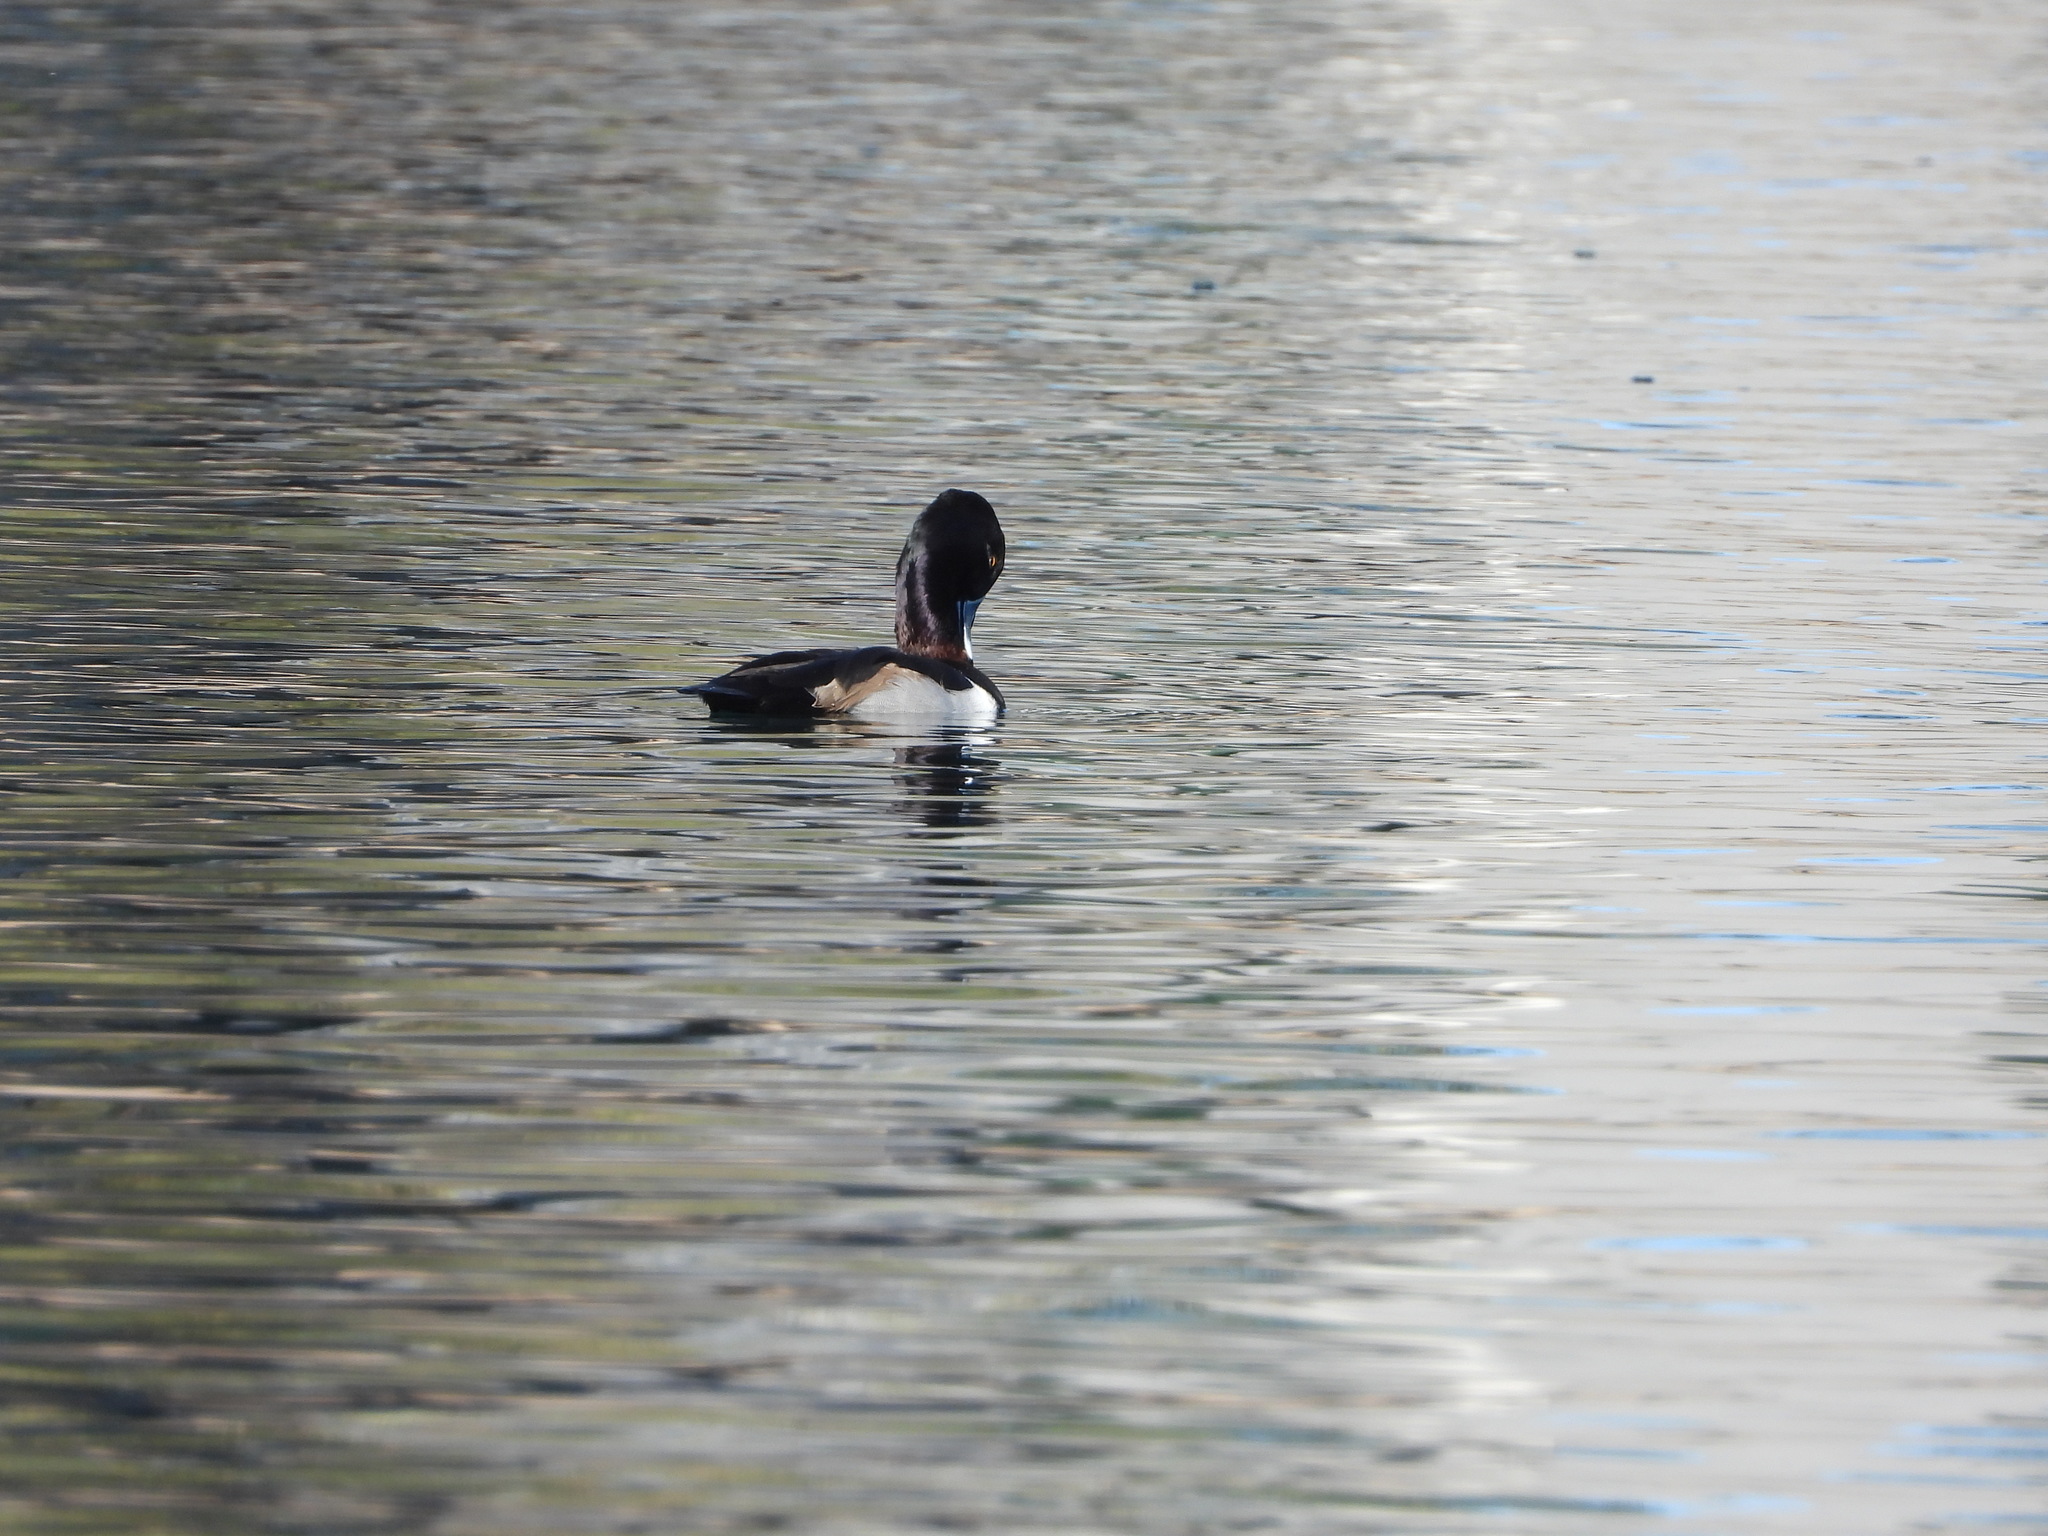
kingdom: Animalia
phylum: Chordata
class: Aves
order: Anseriformes
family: Anatidae
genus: Aythya
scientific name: Aythya collaris
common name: Ring-necked duck
